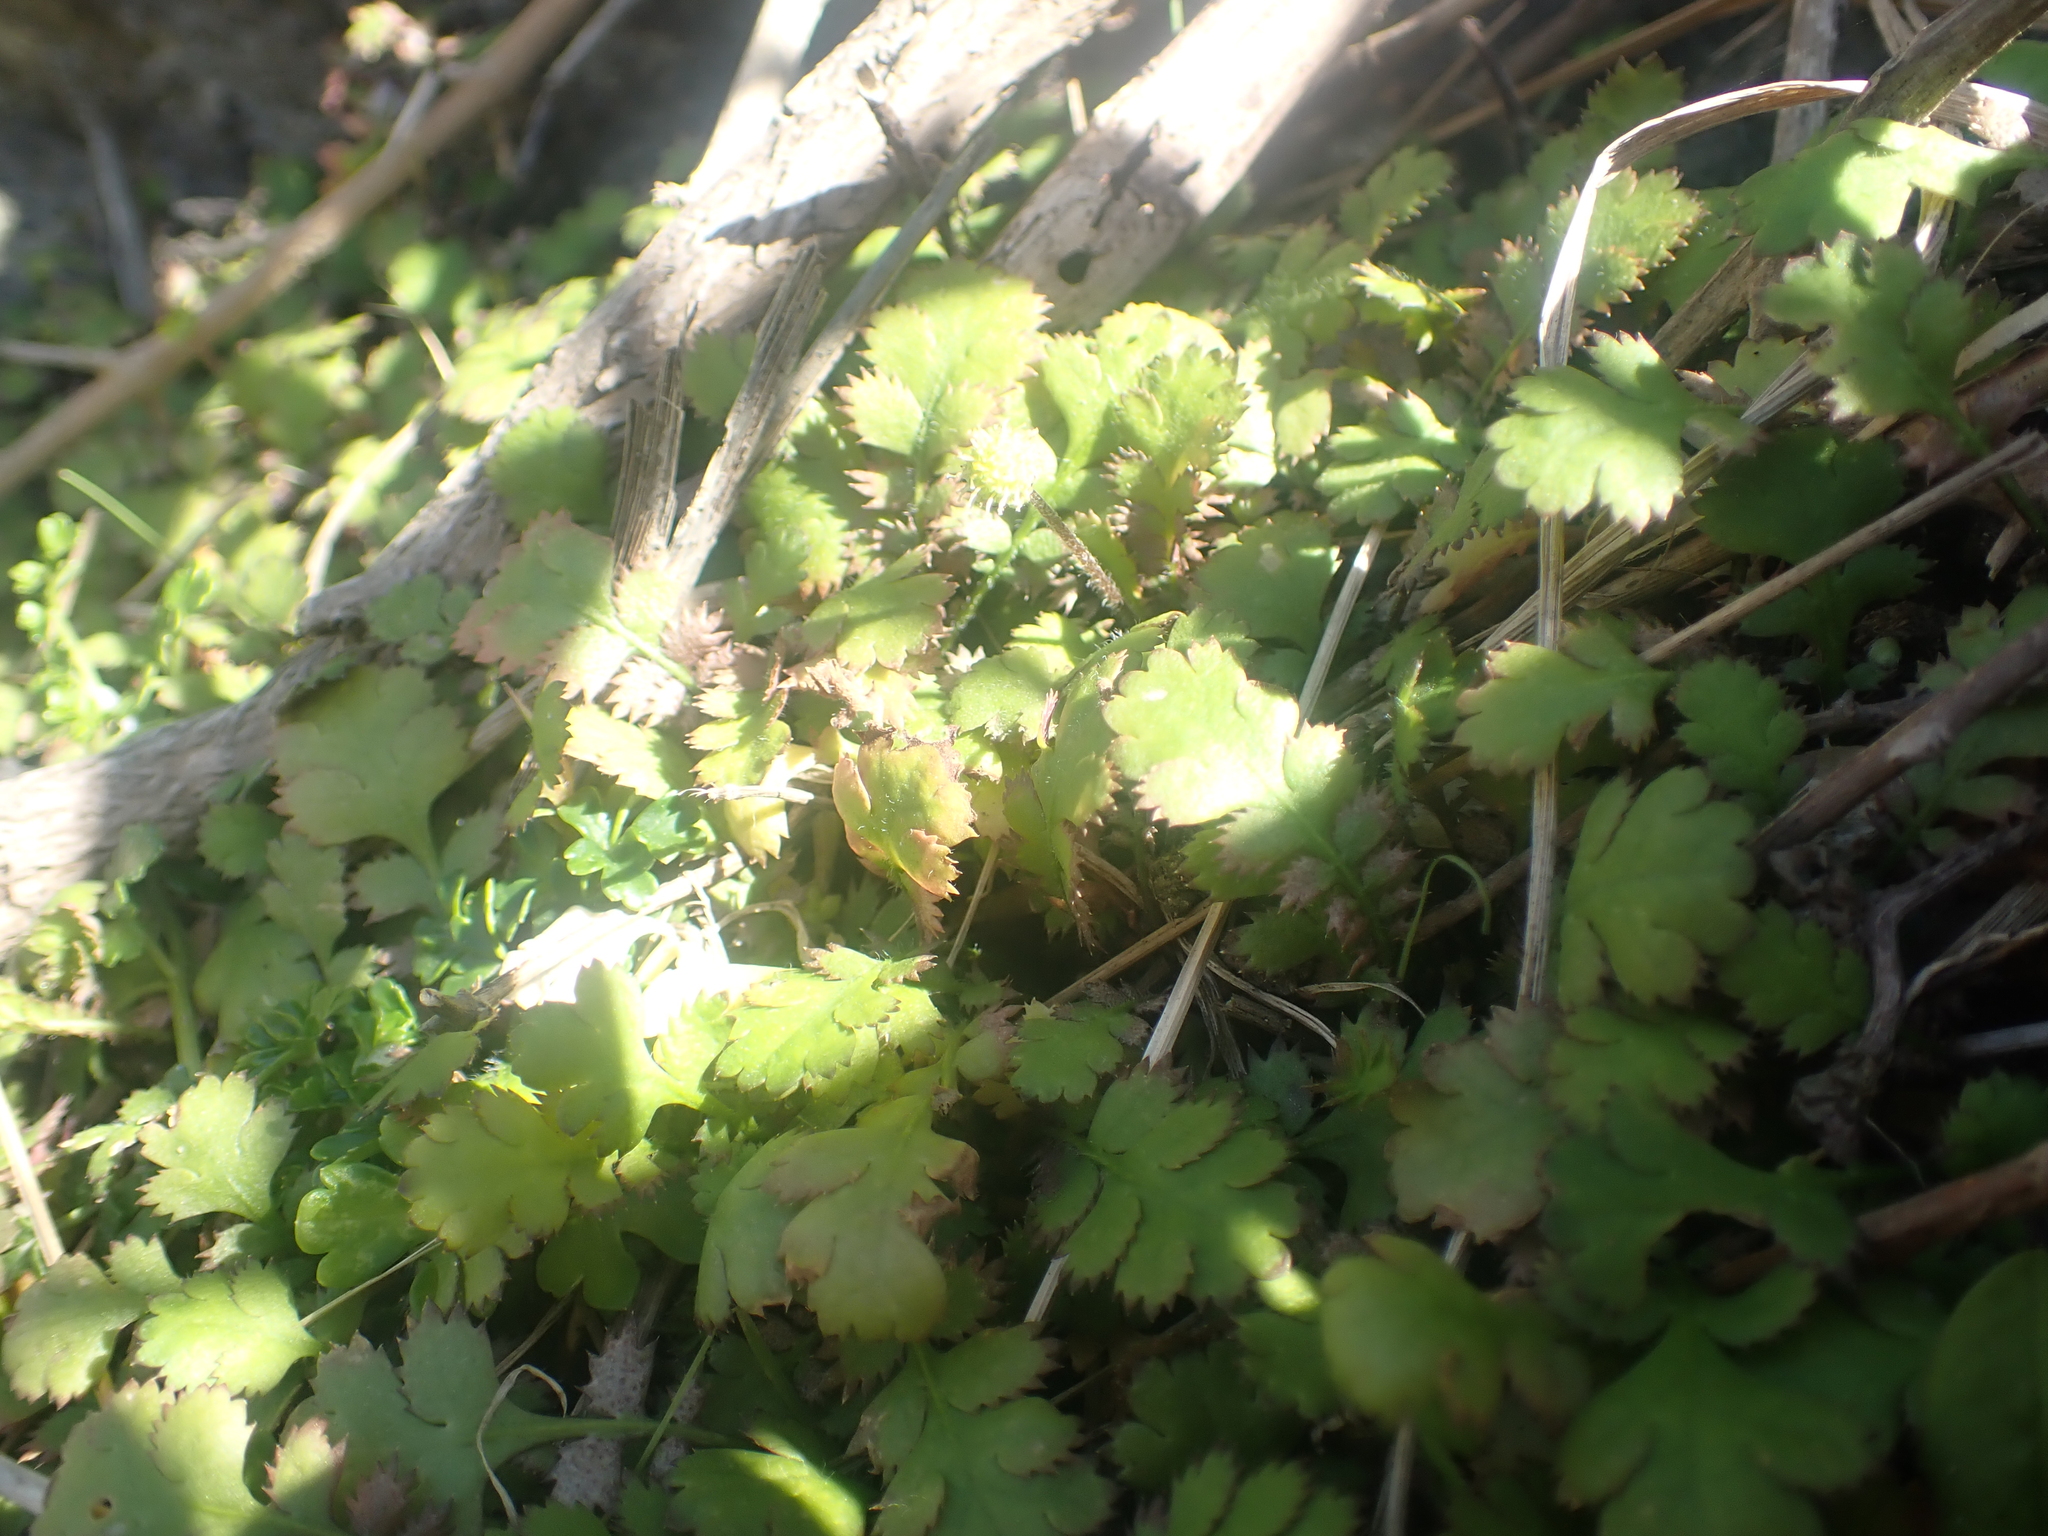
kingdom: Plantae
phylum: Tracheophyta
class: Magnoliopsida
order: Asterales
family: Asteraceae
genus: Leptinella
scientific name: Leptinella squalida
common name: New zealand brass-buttons
